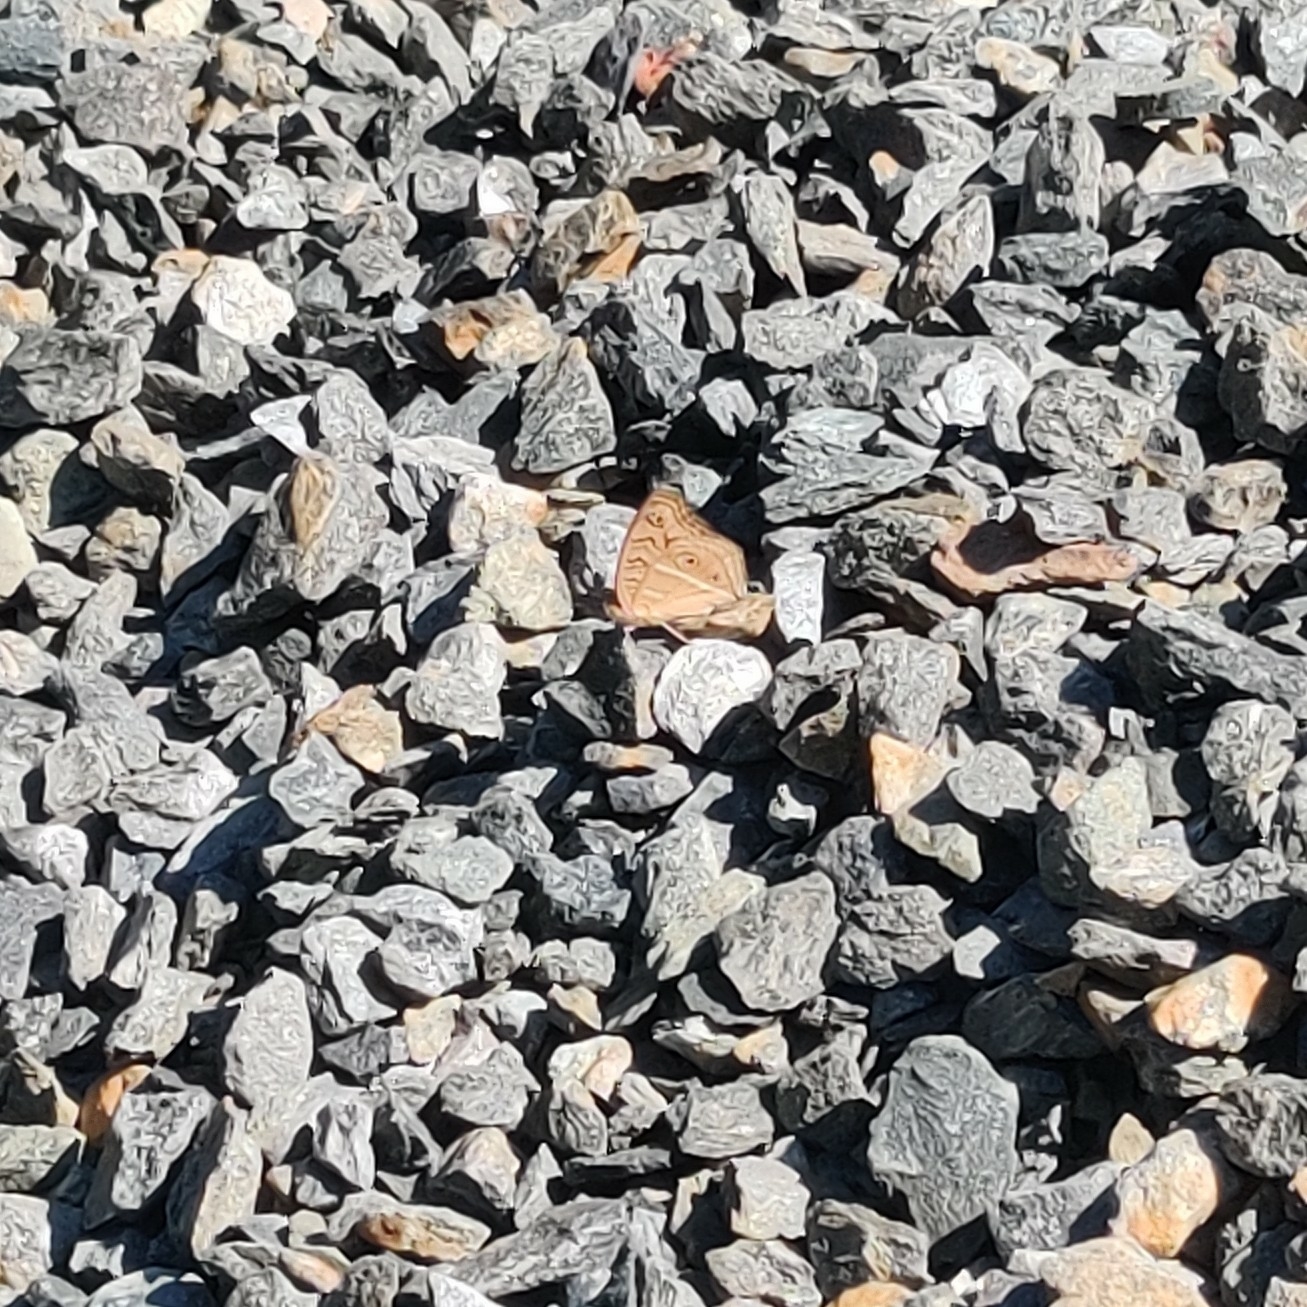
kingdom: Animalia
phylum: Arthropoda
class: Insecta
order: Lepidoptera
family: Nymphalidae
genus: Junonia
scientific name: Junonia almana
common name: Peacock pansy
